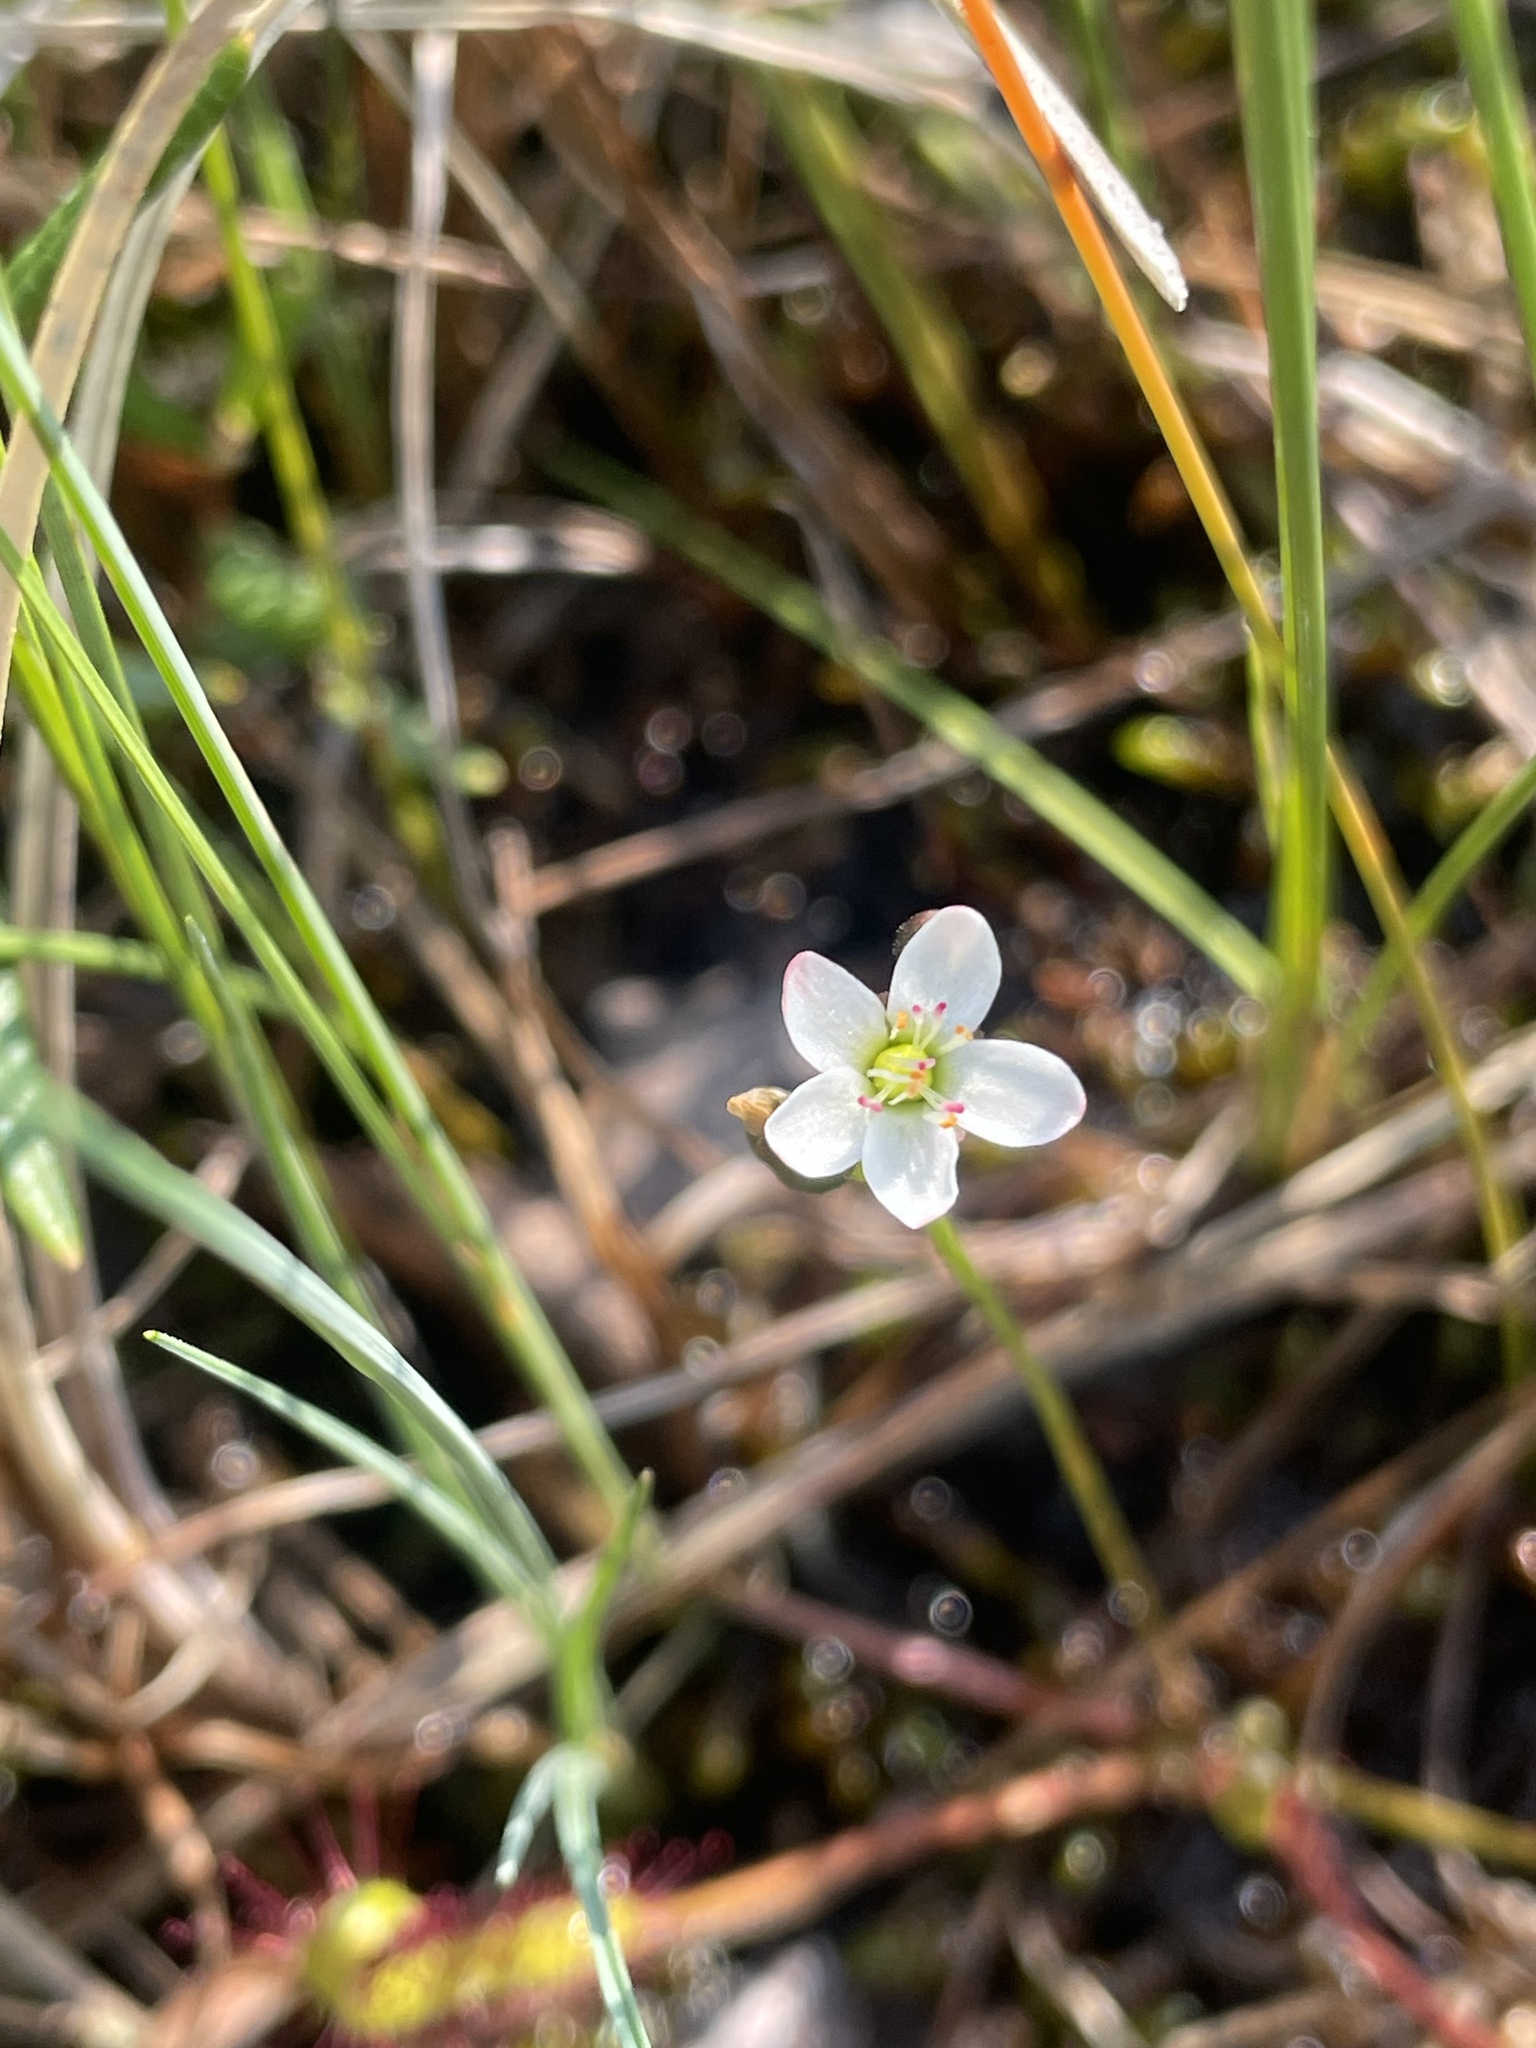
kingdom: Plantae
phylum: Tracheophyta
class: Magnoliopsida
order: Caryophyllales
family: Droseraceae
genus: Drosera
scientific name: Drosera linearis
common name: Linear-leaved sundew
